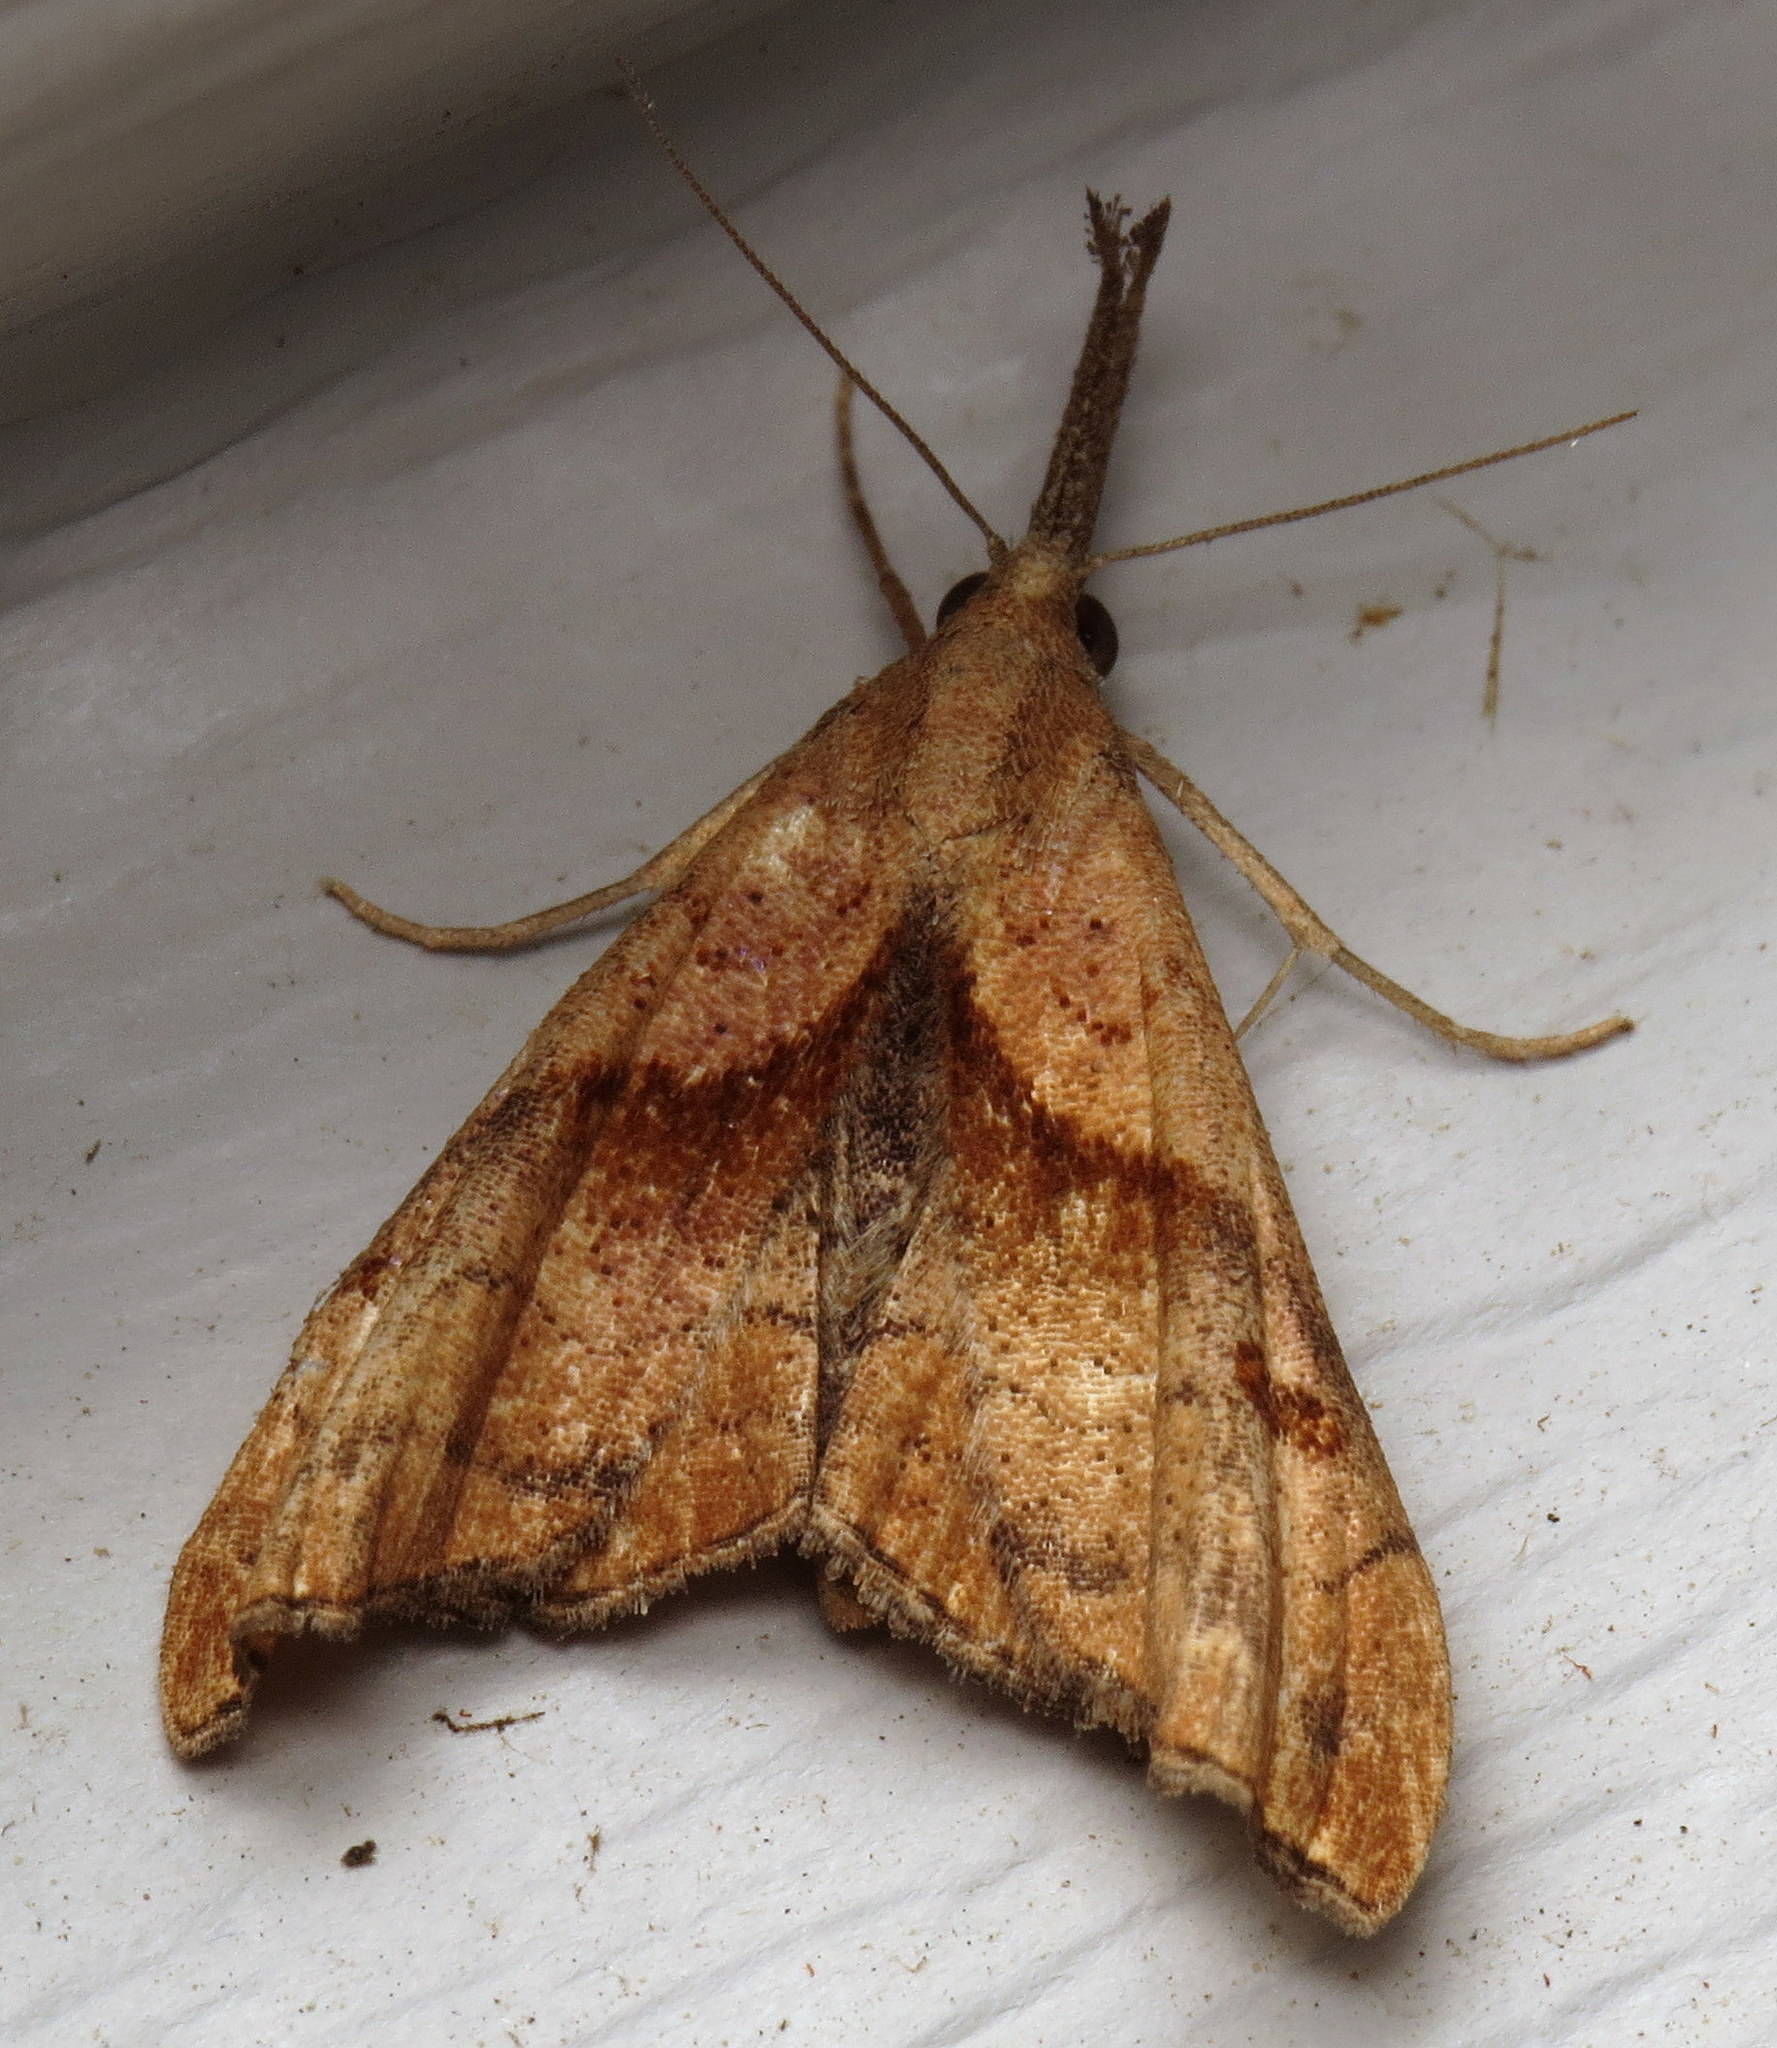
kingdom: Animalia
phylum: Arthropoda
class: Insecta
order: Lepidoptera
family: Erebidae
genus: Palthis
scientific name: Palthis angulalis
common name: Dark-spotted palthis moth
